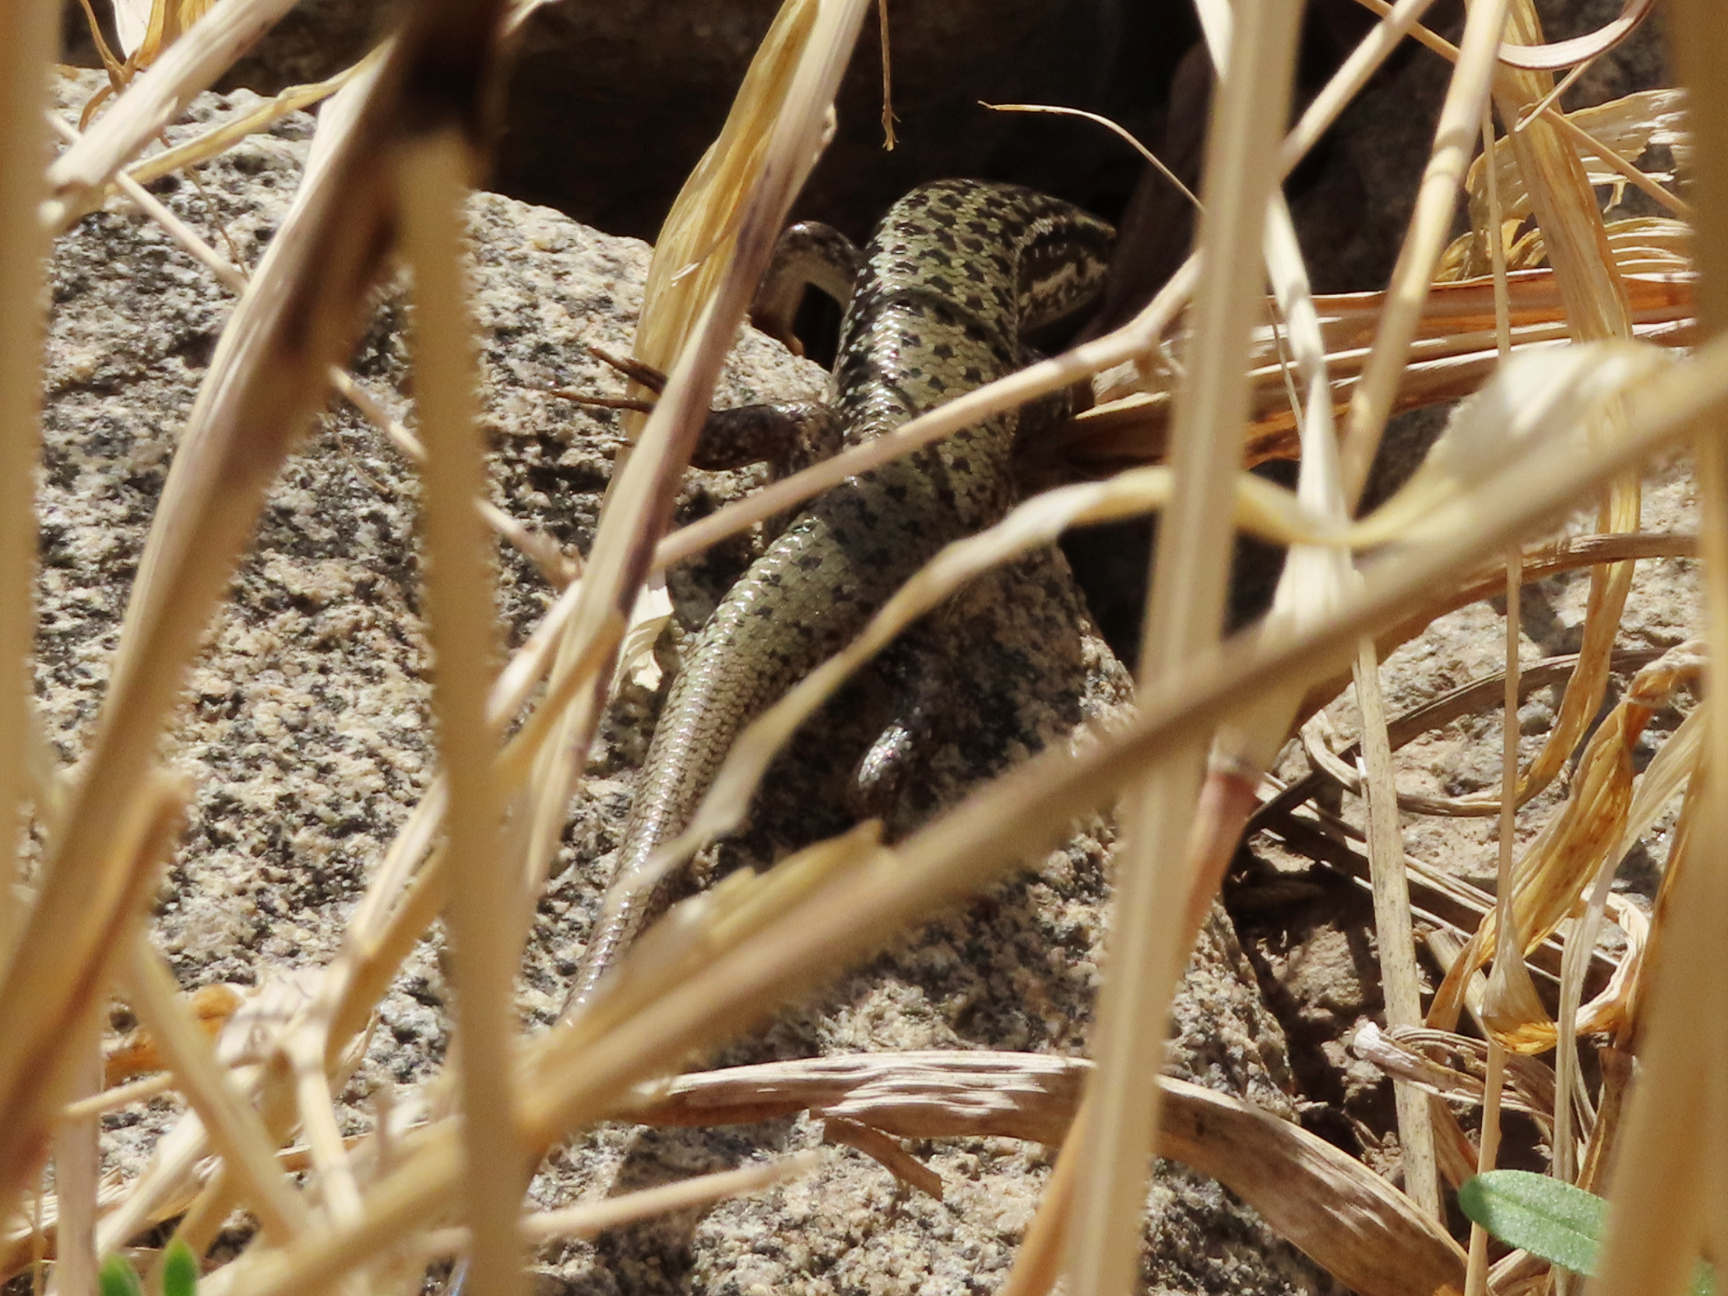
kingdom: Animalia
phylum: Chordata
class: Squamata
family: Scincidae
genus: Heremites
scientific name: Heremites septemtaeniatus
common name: Golden grass mabuya
